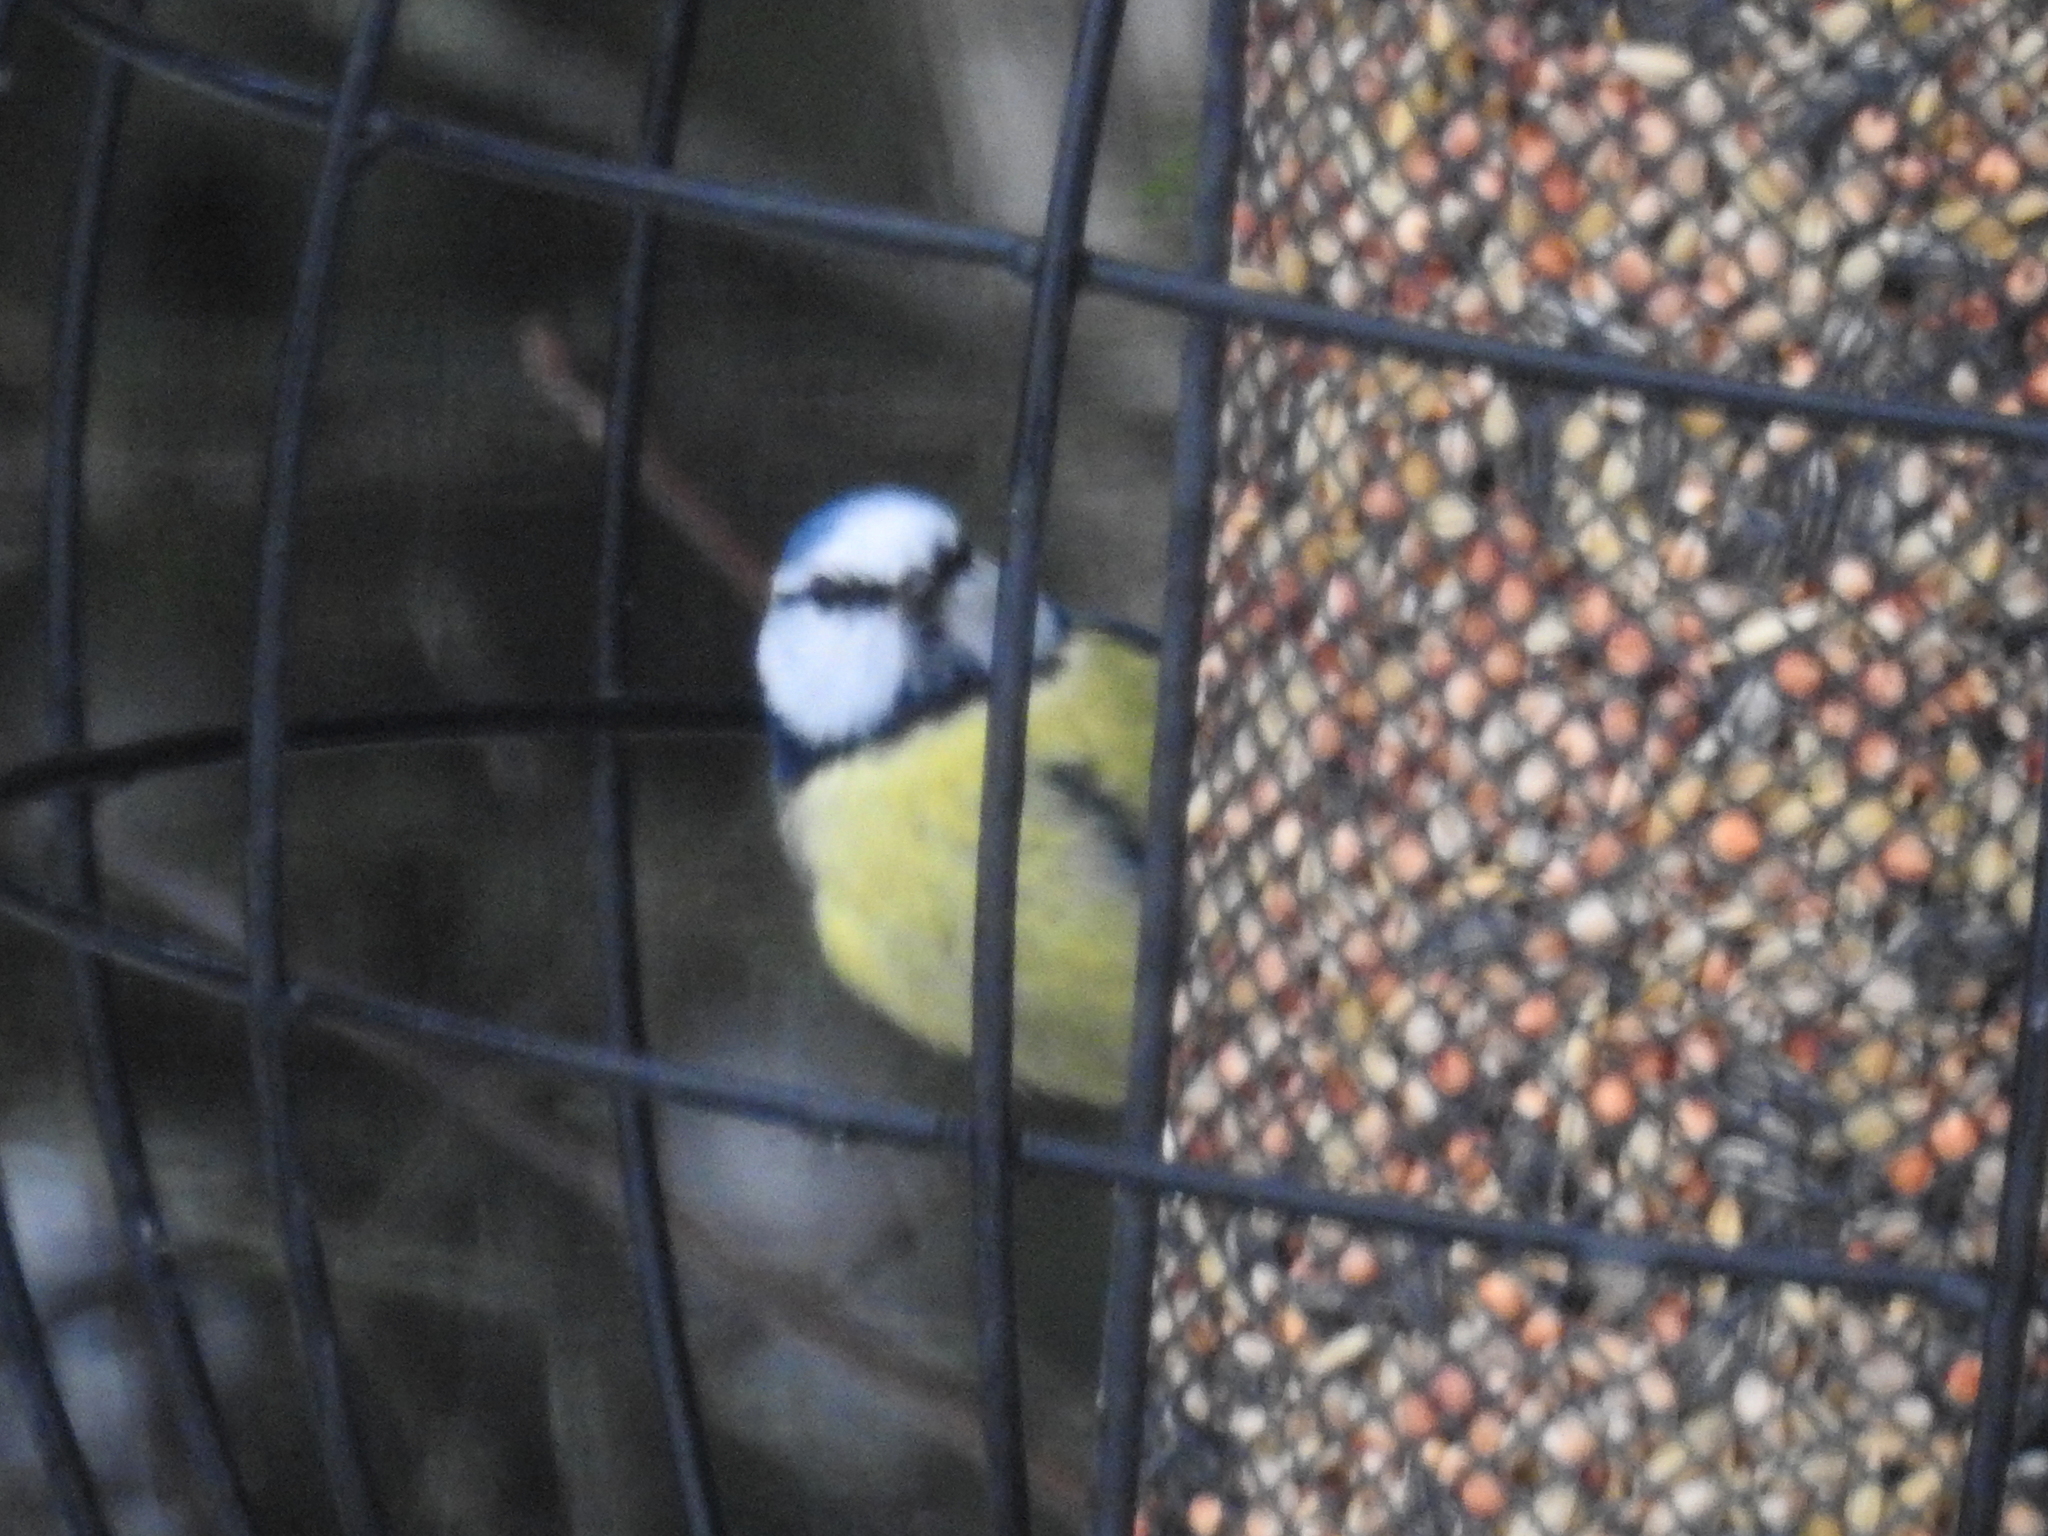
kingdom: Animalia
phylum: Chordata
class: Aves
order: Passeriformes
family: Paridae
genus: Cyanistes
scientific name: Cyanistes caeruleus
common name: Eurasian blue tit
